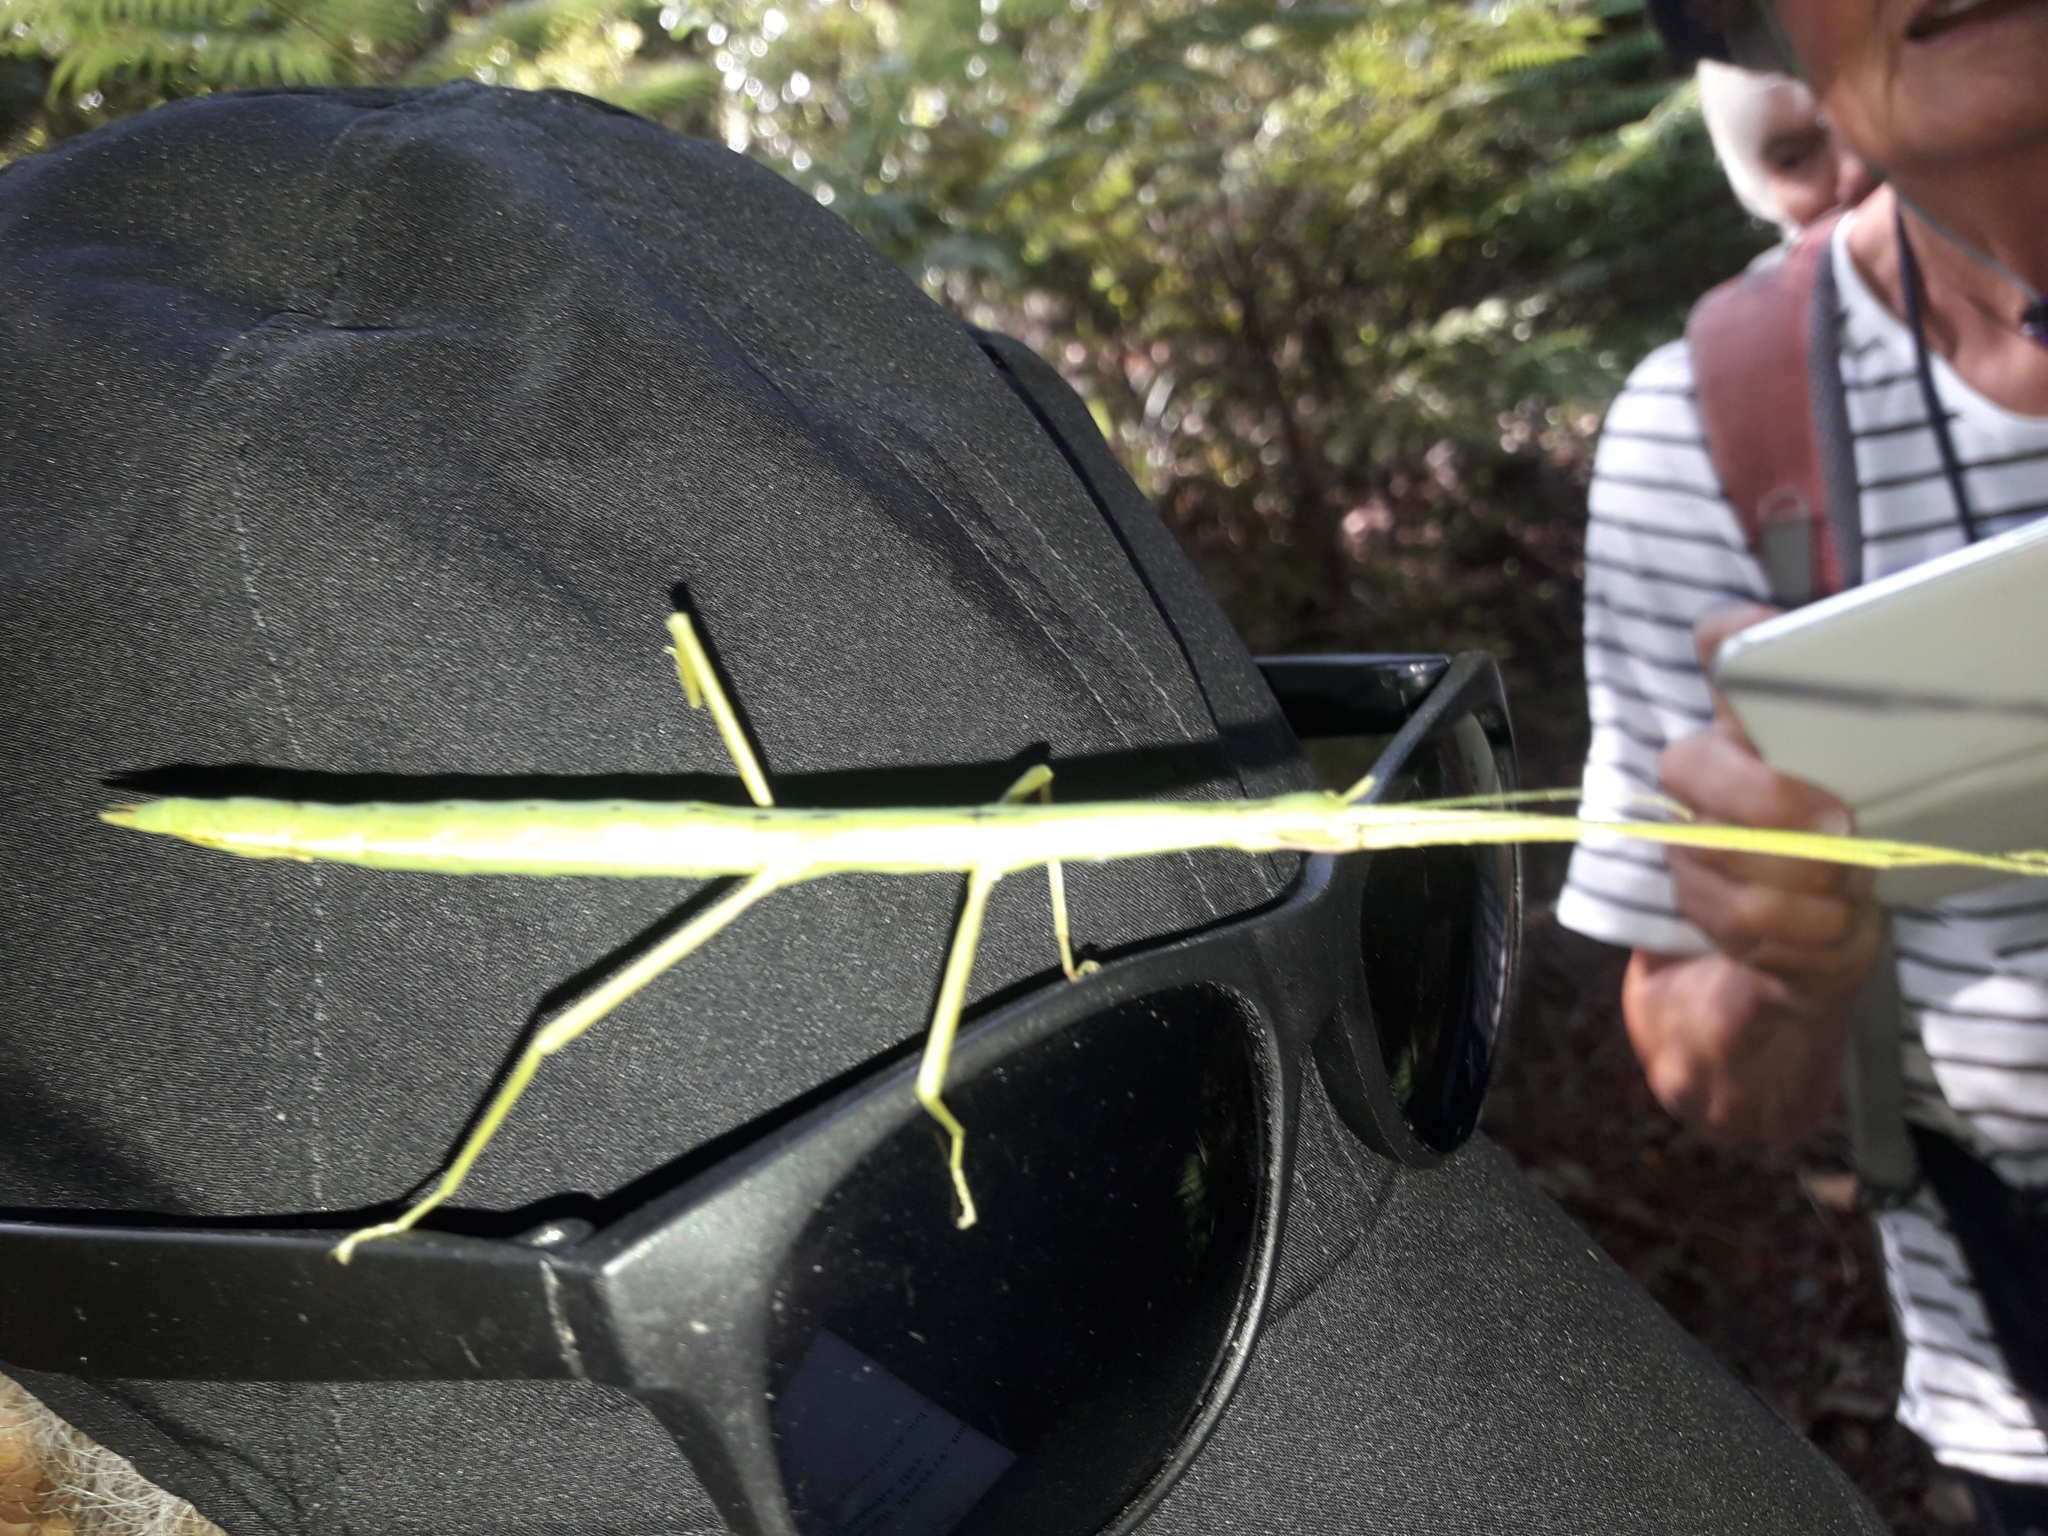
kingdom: Animalia
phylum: Arthropoda
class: Insecta
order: Phasmida
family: Phasmatidae
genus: Clitarchus
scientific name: Clitarchus hookeri
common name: Smooth stick insect
